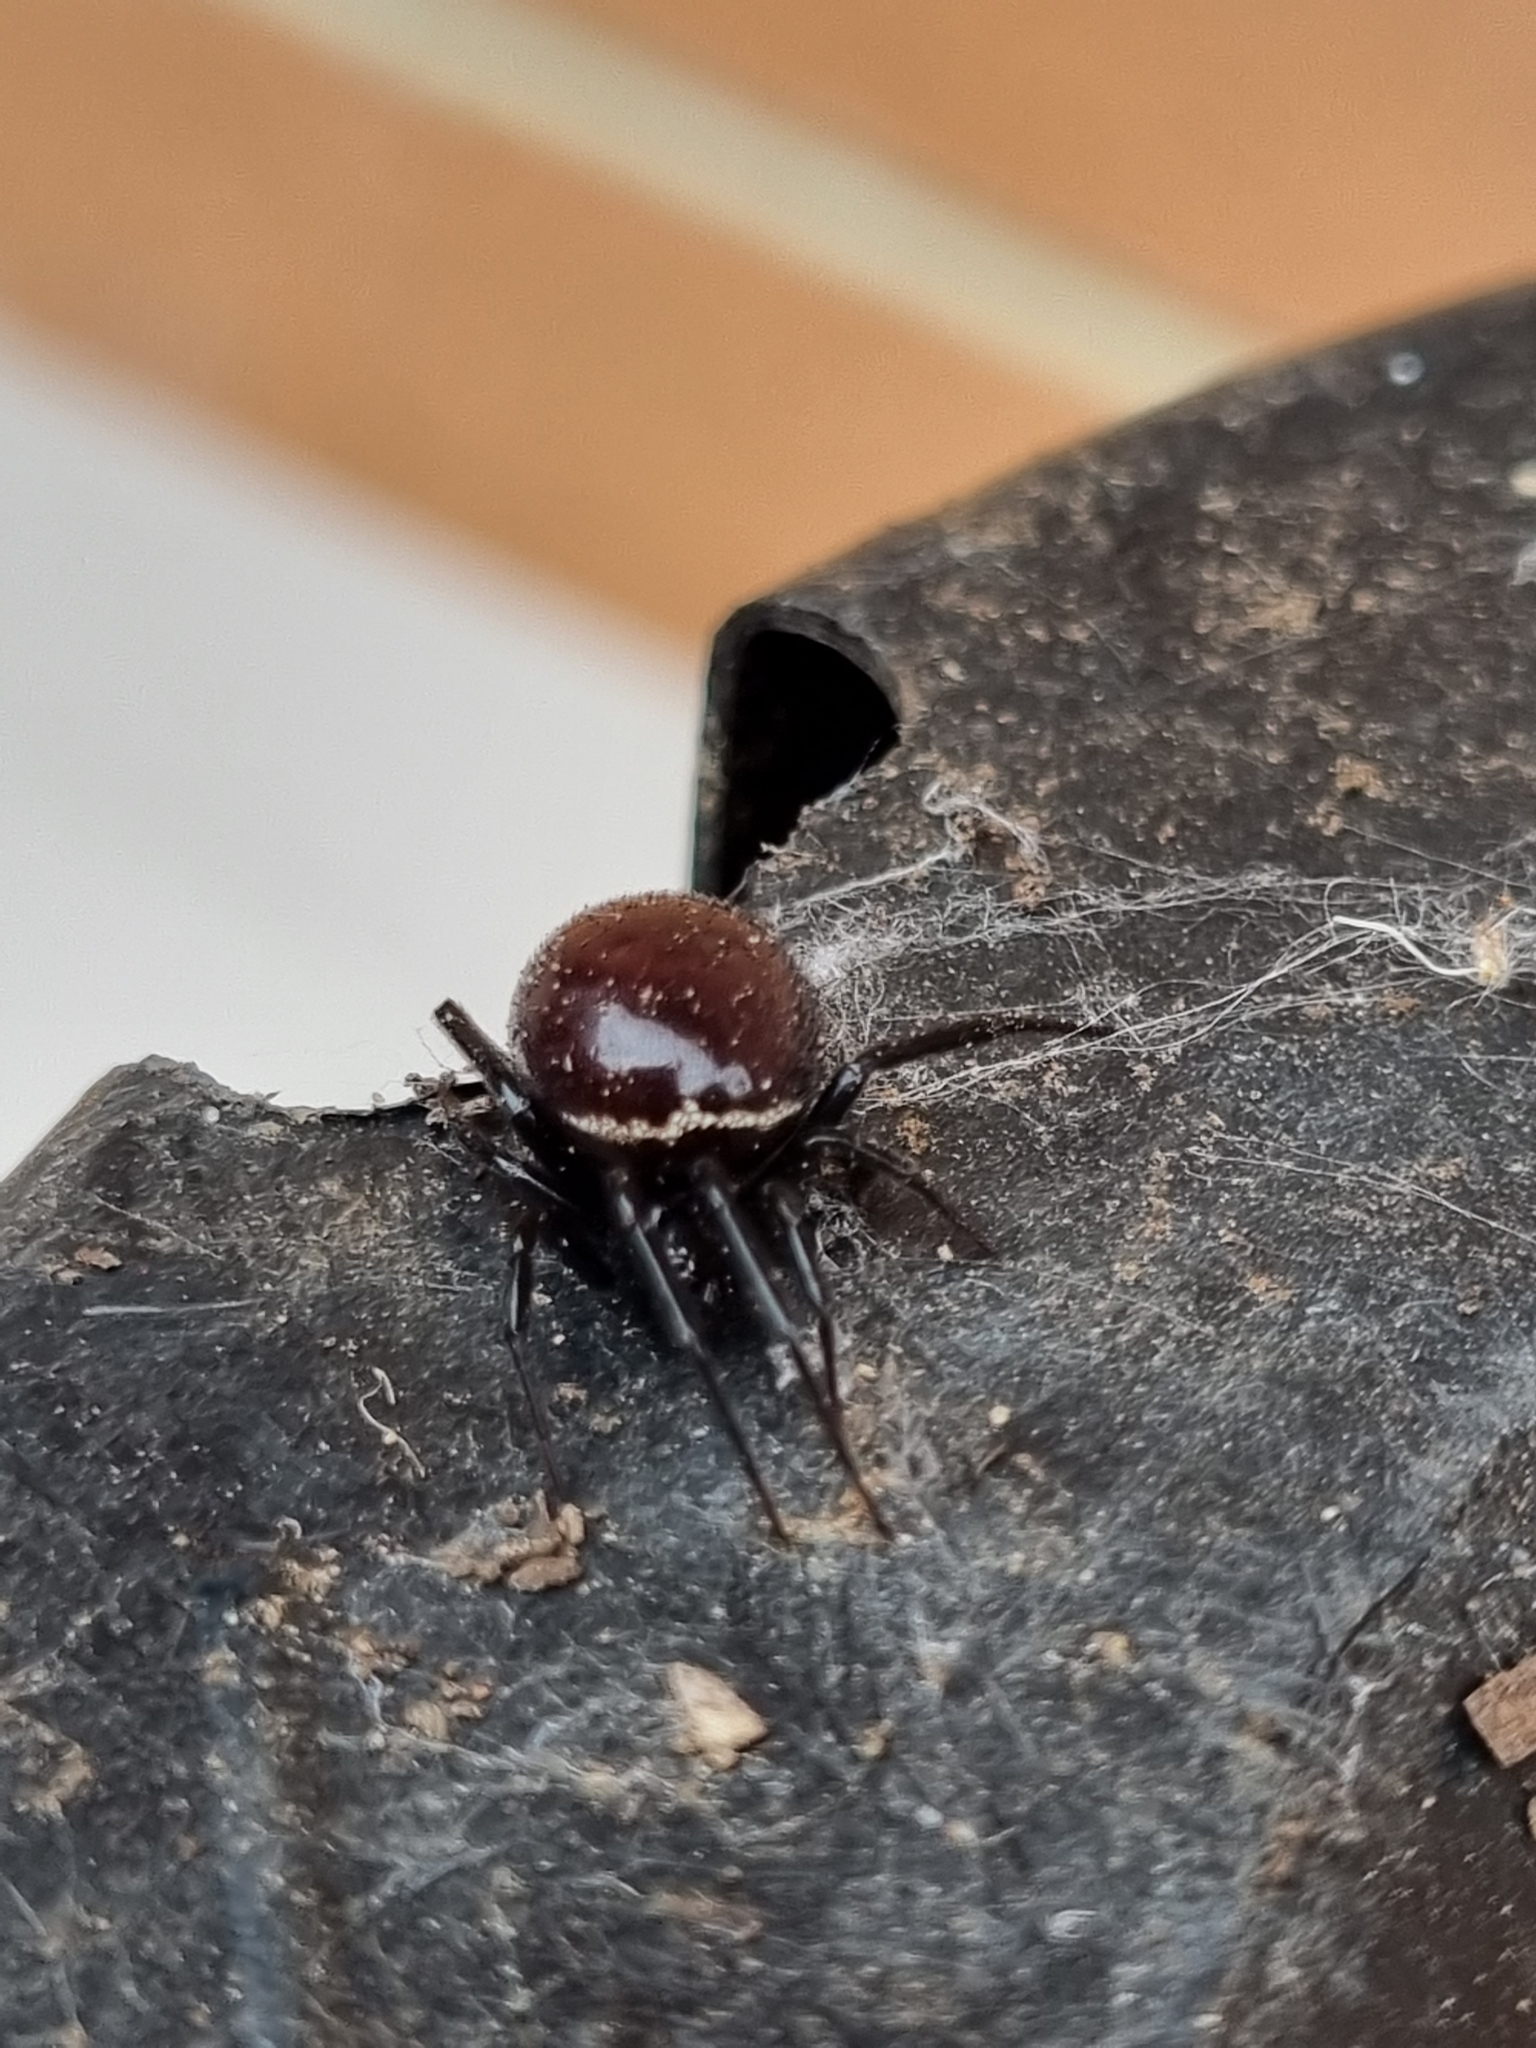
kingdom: Animalia
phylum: Arthropoda
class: Arachnida
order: Araneae
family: Theridiidae
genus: Steatoda
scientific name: Steatoda grossa
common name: False black widow
